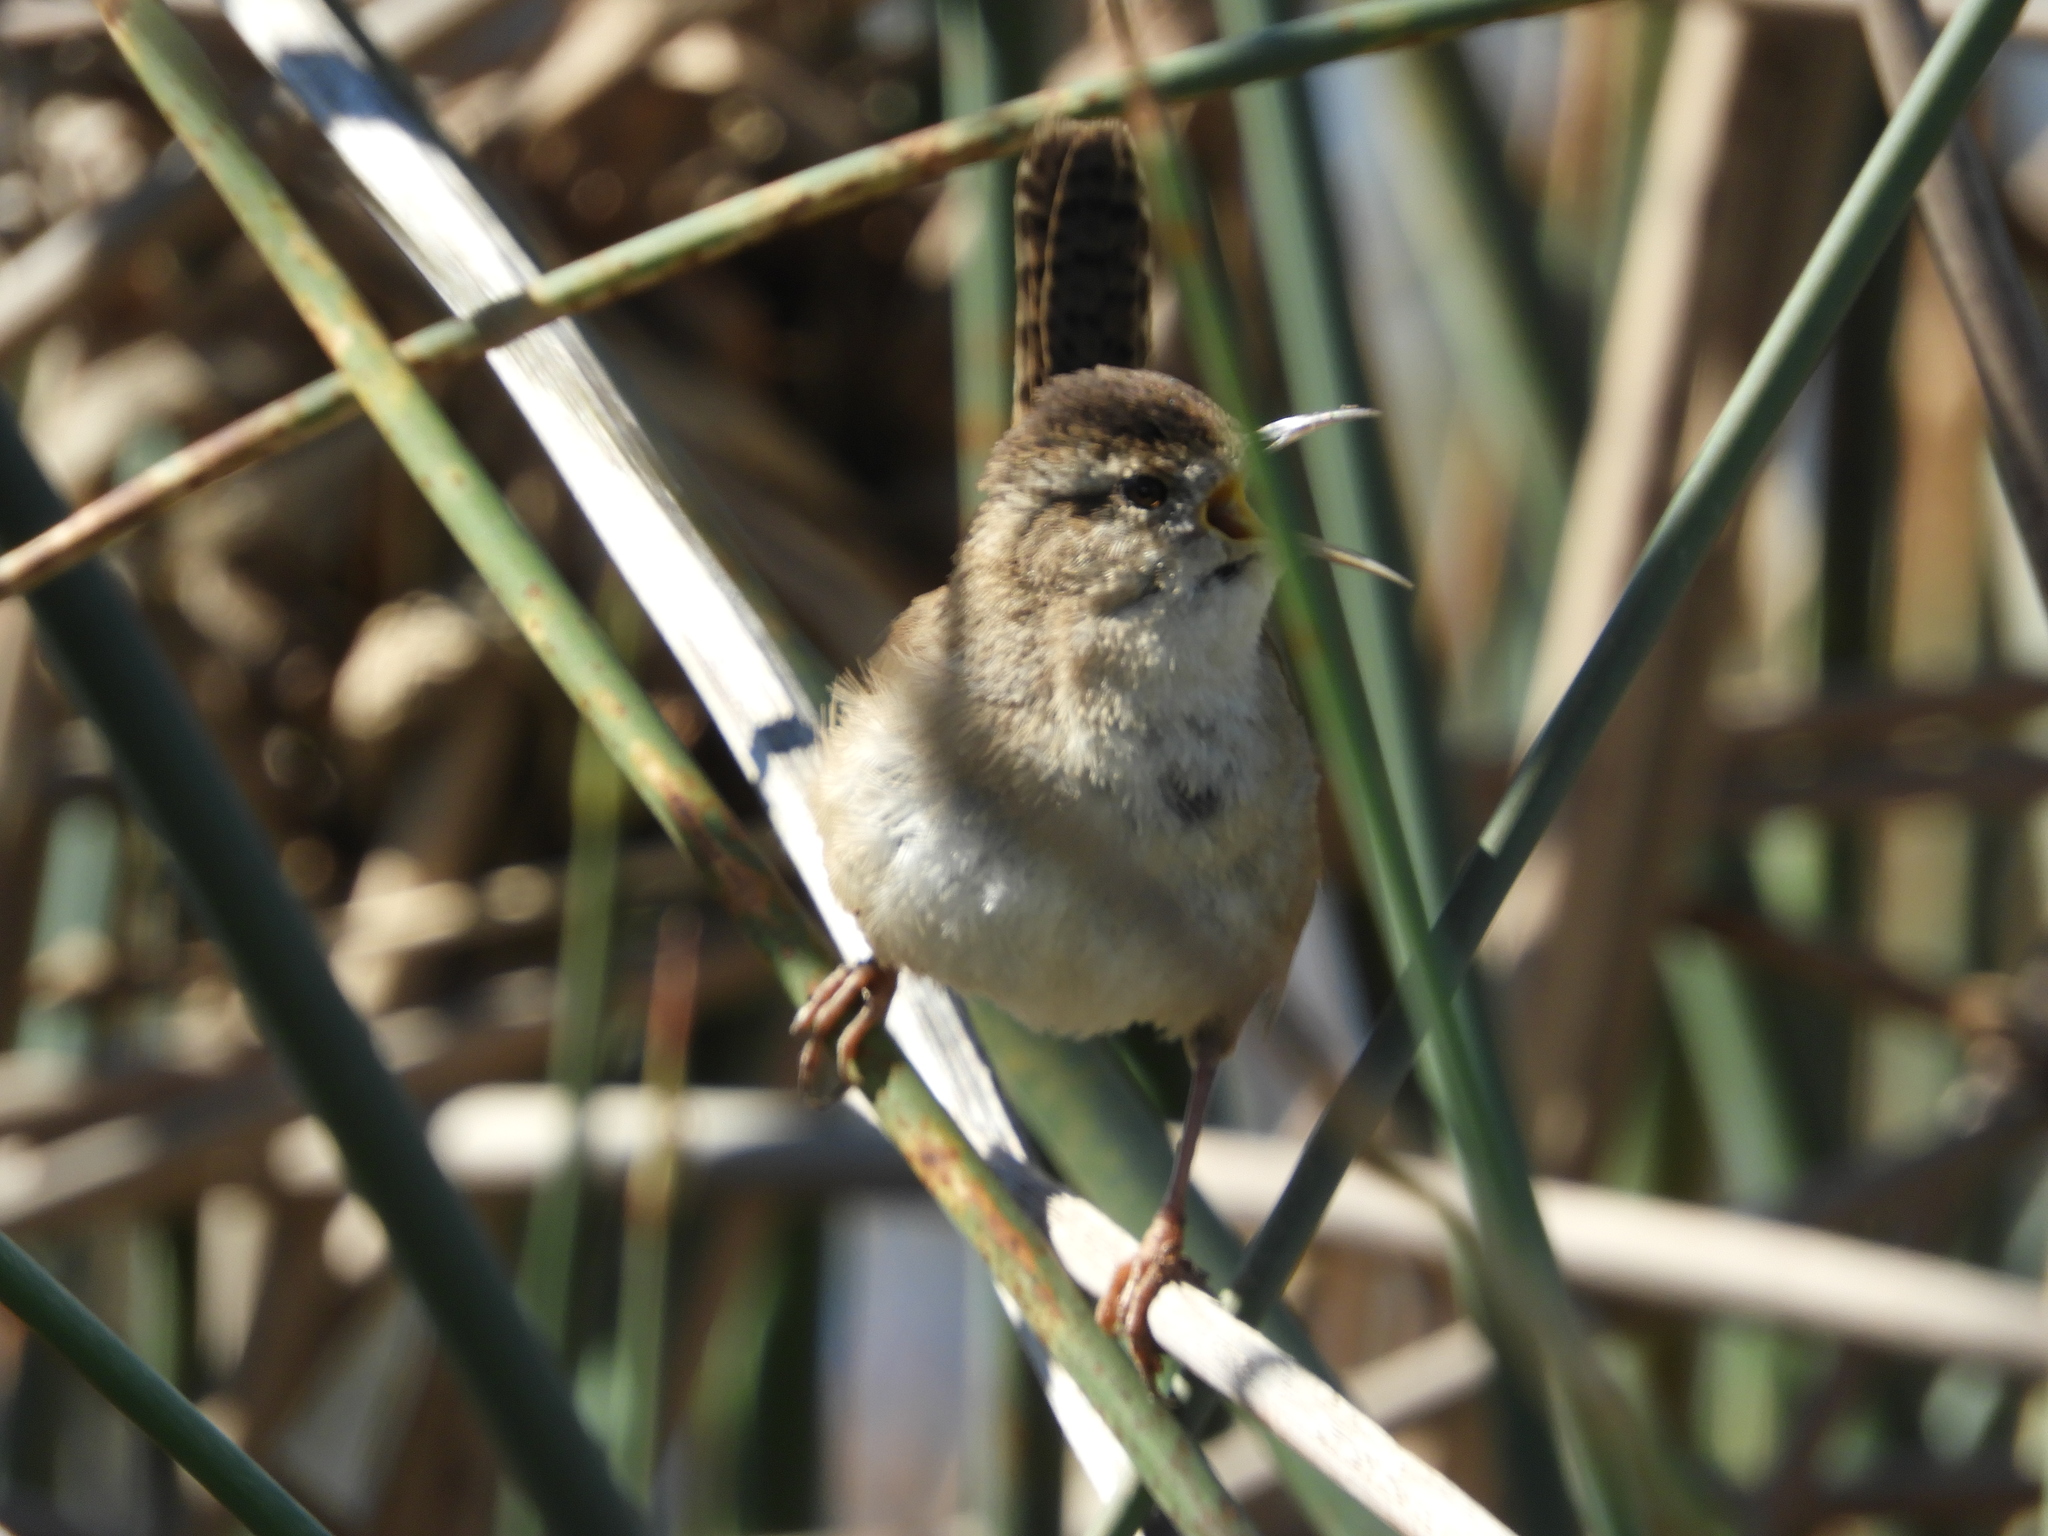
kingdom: Animalia
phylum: Chordata
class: Aves
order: Passeriformes
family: Troglodytidae
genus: Cistothorus
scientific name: Cistothorus palustris
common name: Marsh wren
